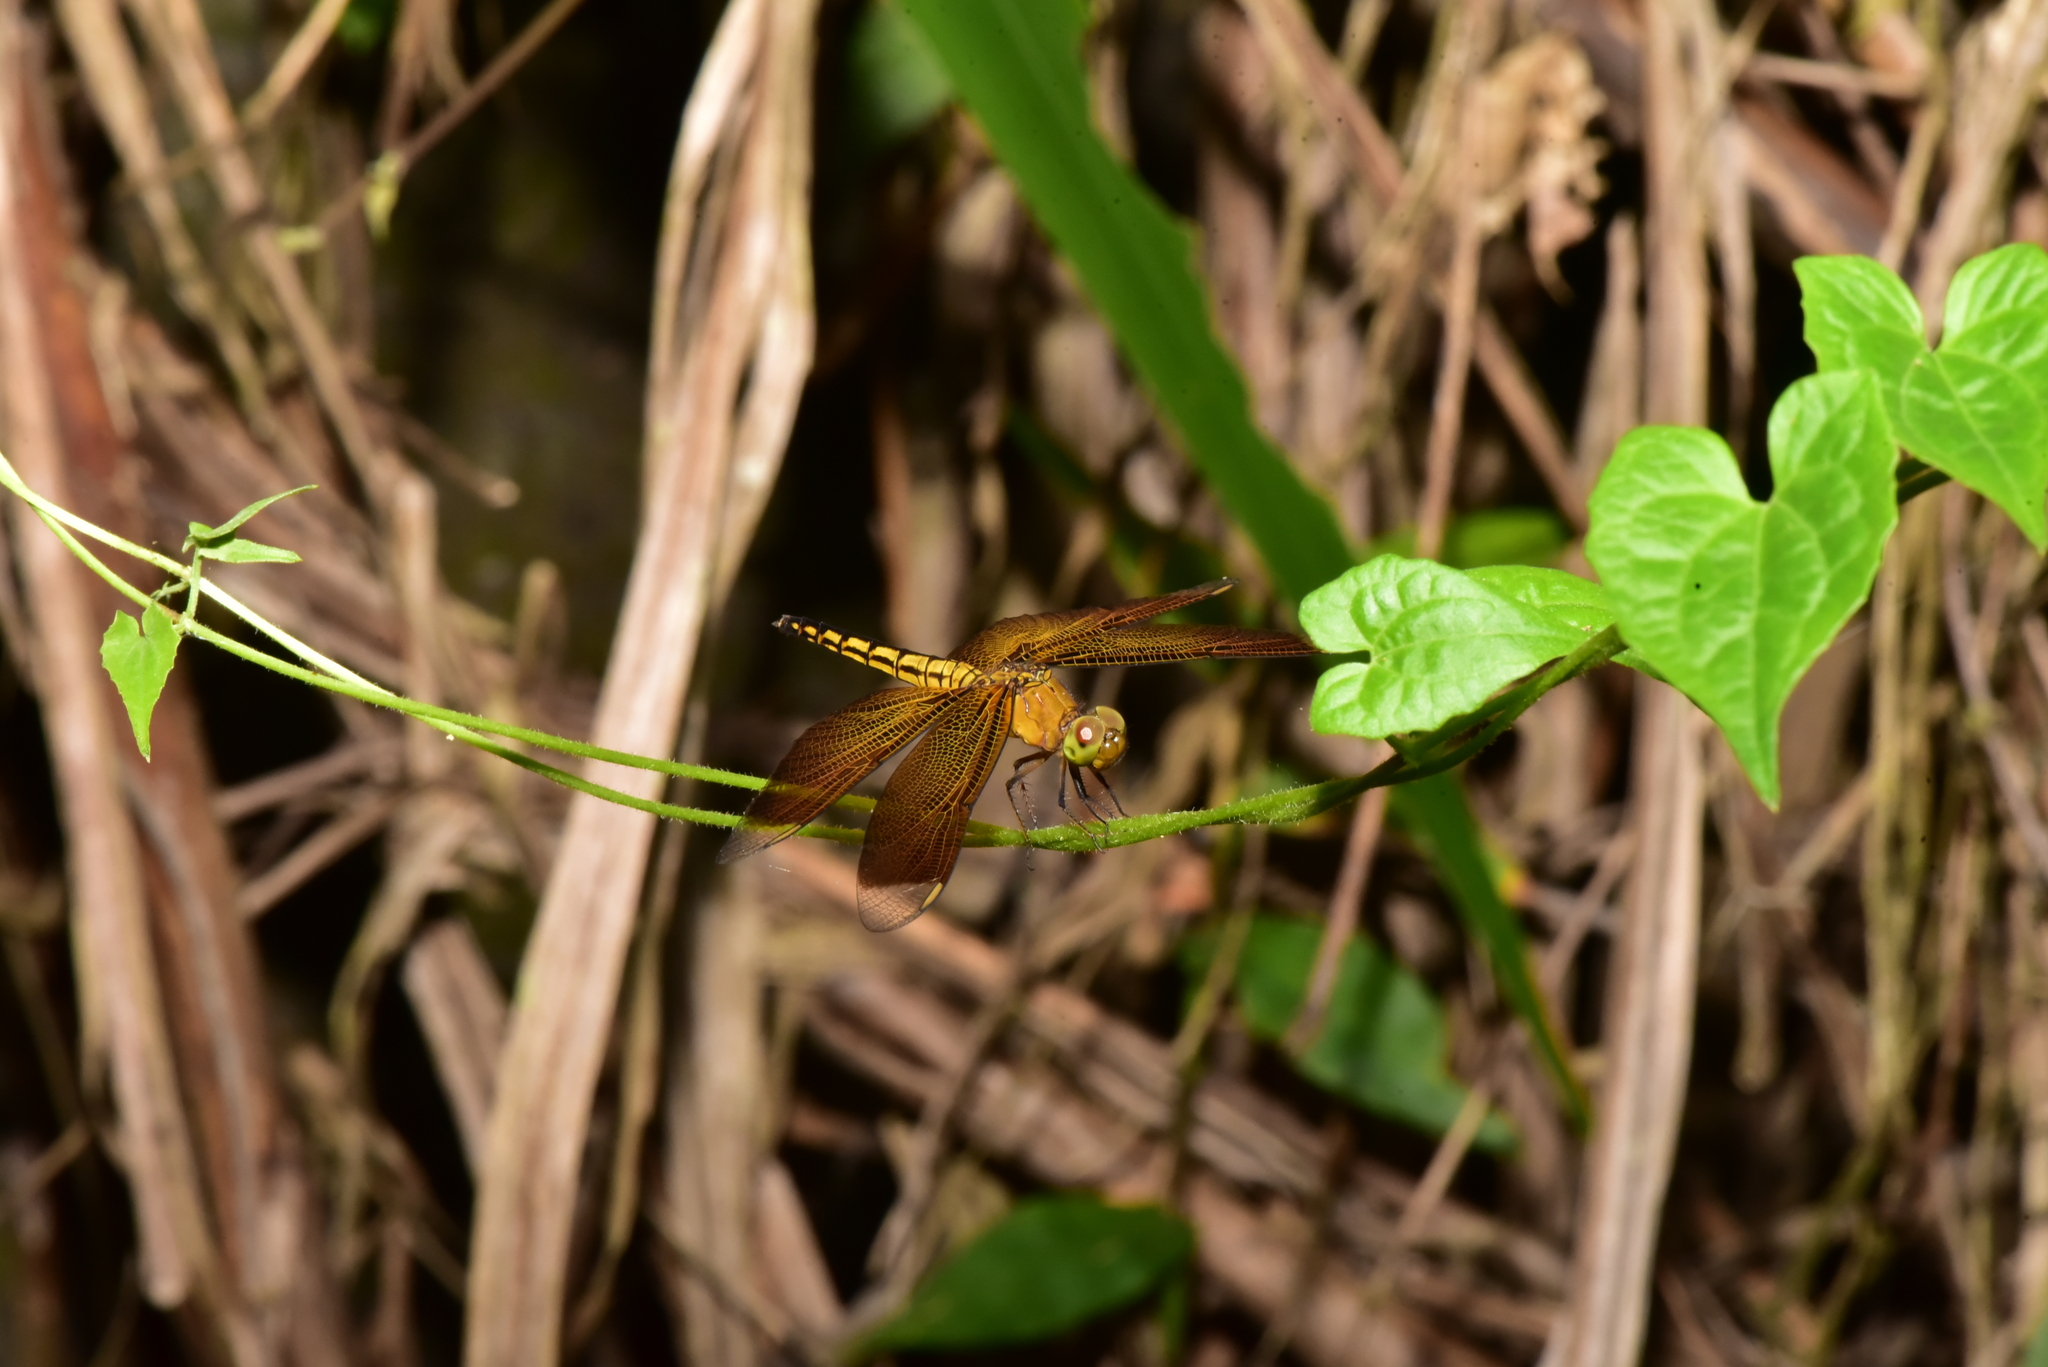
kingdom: Animalia
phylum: Arthropoda
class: Insecta
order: Odonata
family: Libellulidae
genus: Neurothemis
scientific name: Neurothemis taiwanensis
